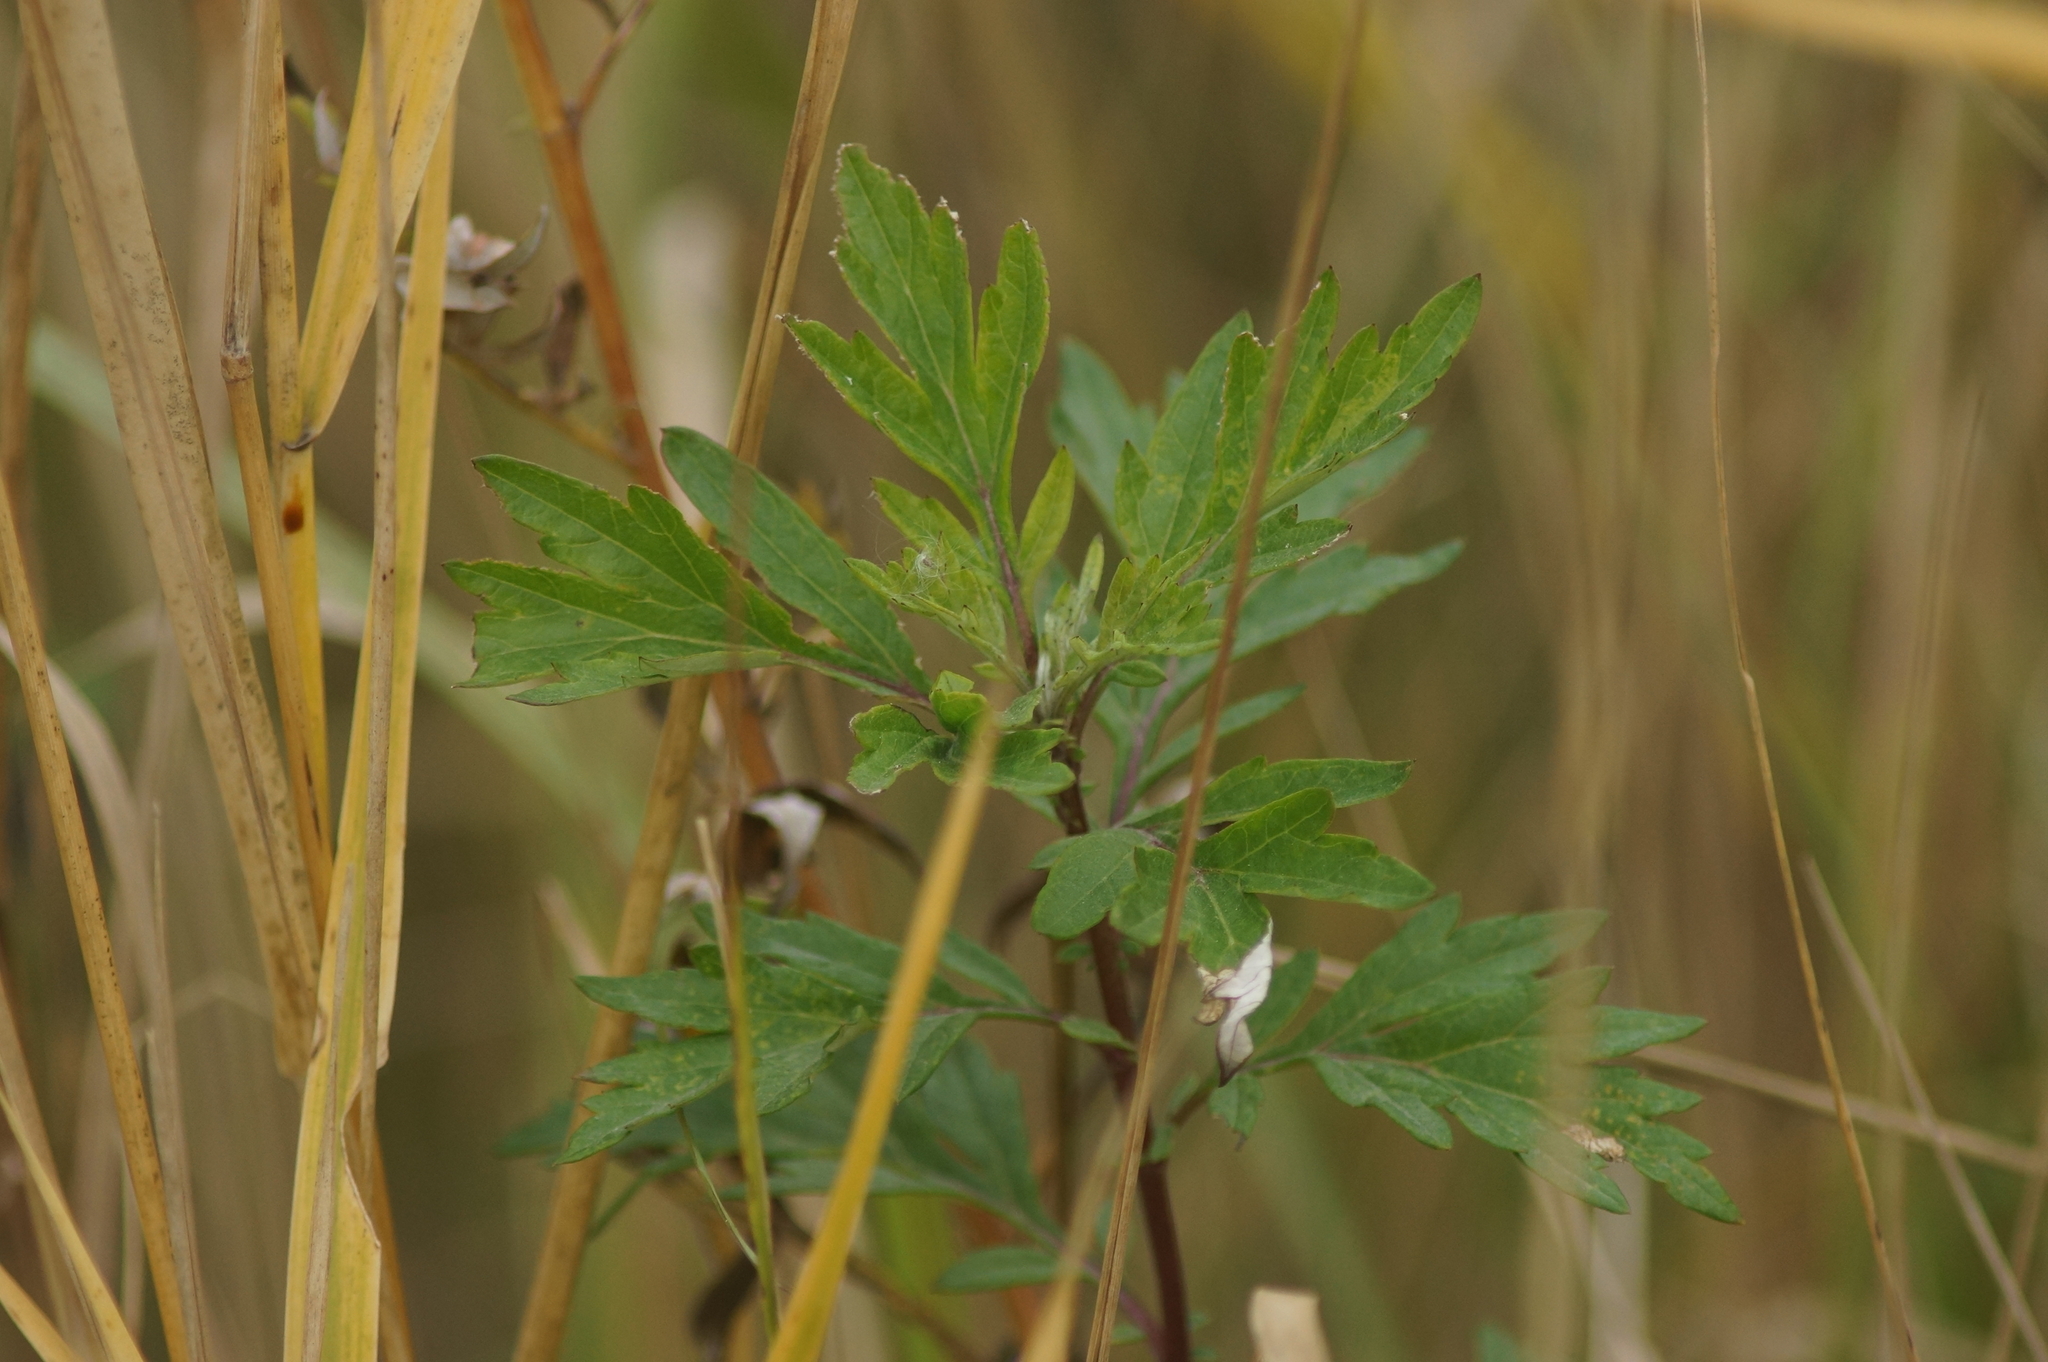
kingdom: Plantae
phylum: Tracheophyta
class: Magnoliopsida
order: Asterales
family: Asteraceae
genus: Artemisia
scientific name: Artemisia vulgaris
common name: Mugwort
